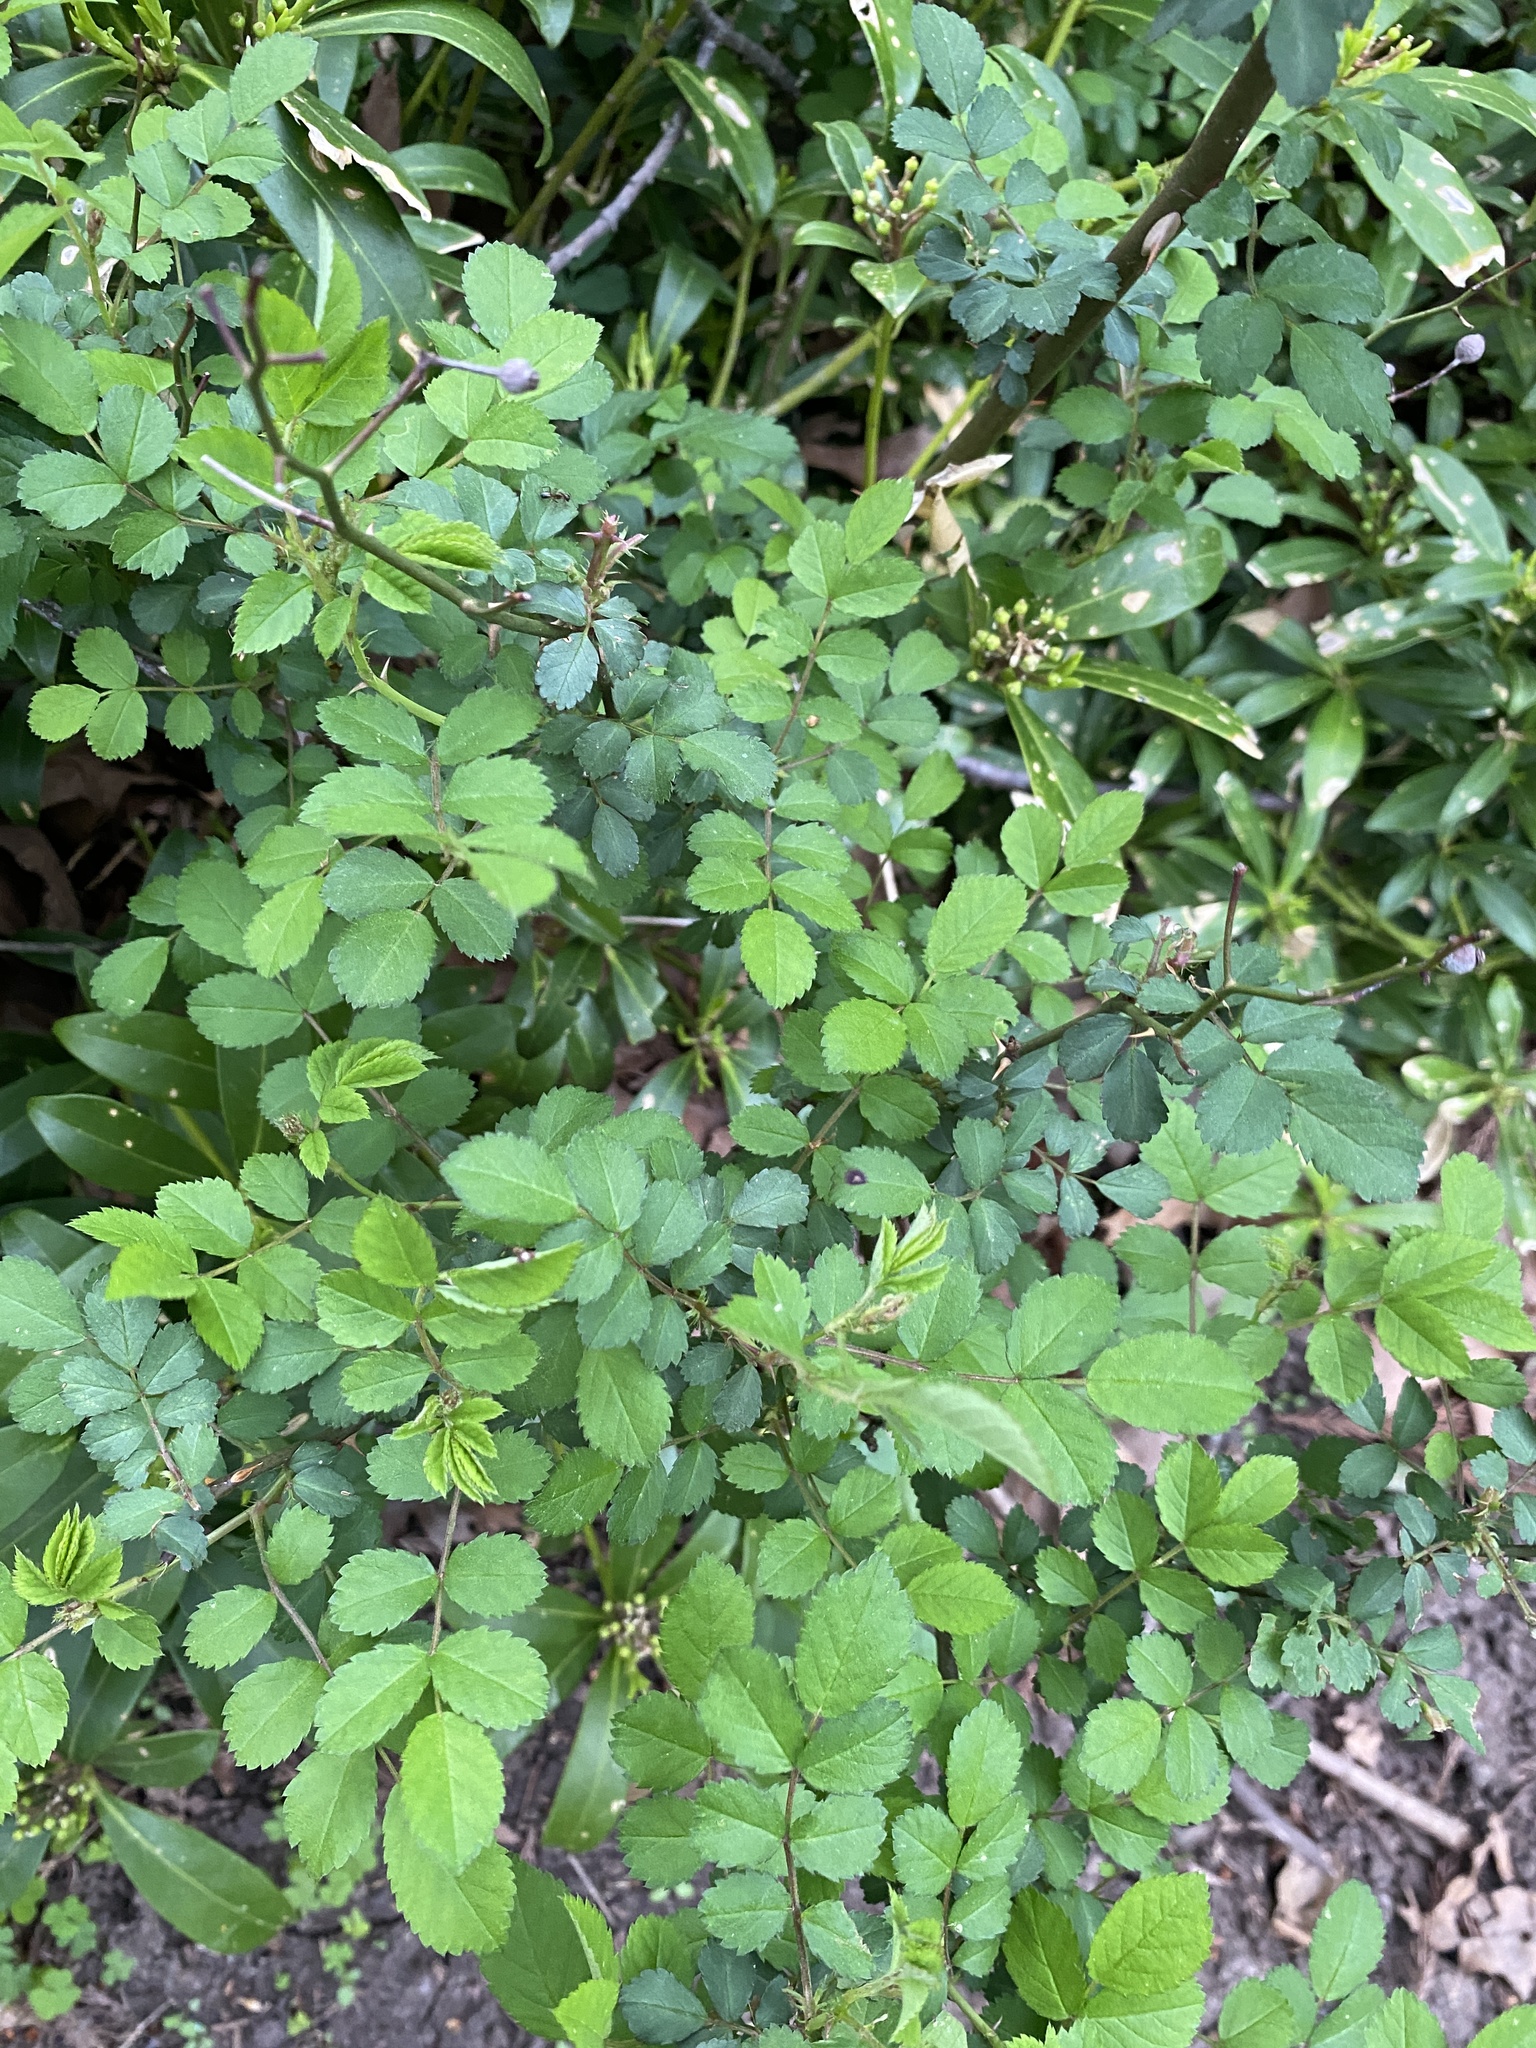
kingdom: Plantae
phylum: Tracheophyta
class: Magnoliopsida
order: Rosales
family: Rosaceae
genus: Rosa
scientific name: Rosa multiflora
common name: Multiflora rose
